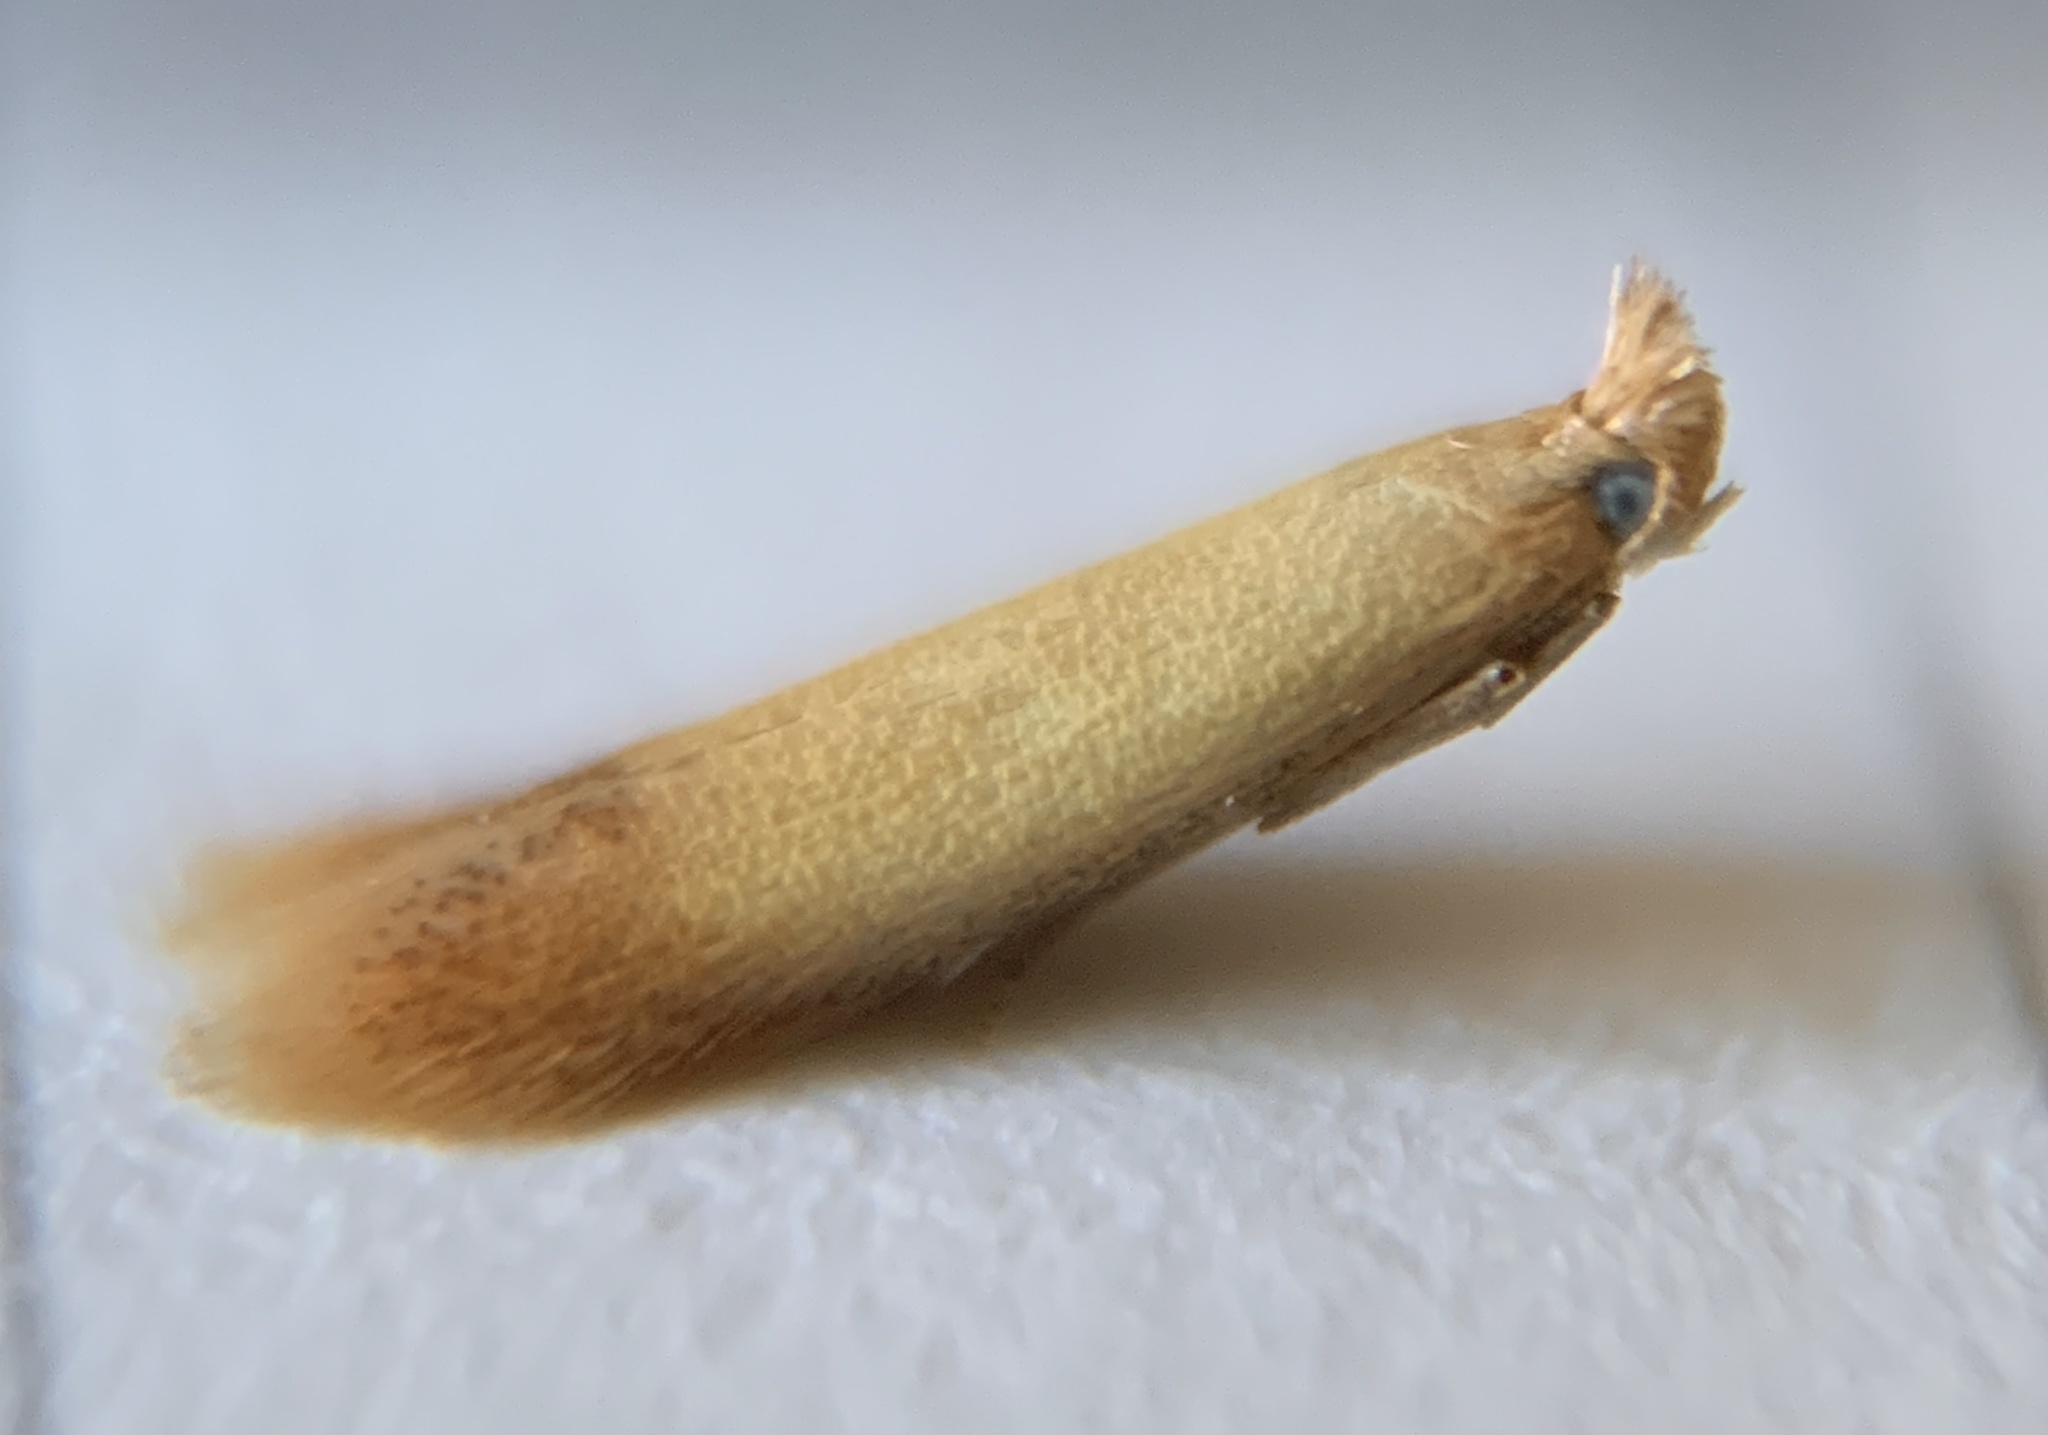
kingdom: Animalia
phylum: Arthropoda
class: Insecta
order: Lepidoptera
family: Tischeriidae
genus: Coptotriche
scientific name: Coptotriche citrinipennella
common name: The golden sweeper
